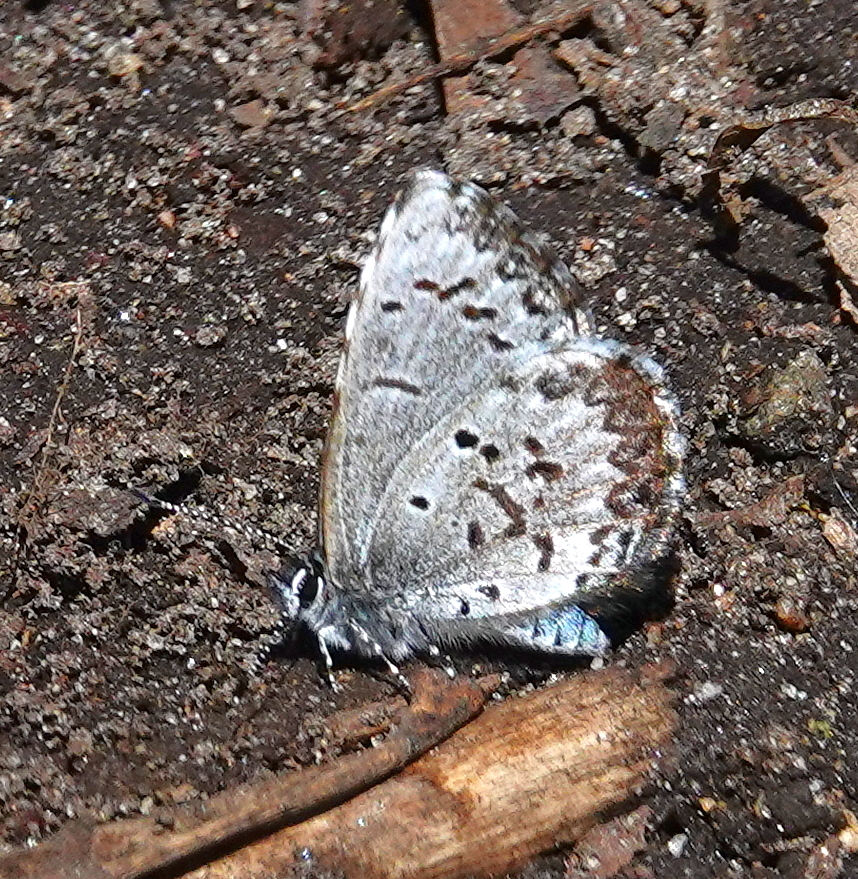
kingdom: Animalia
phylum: Arthropoda
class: Insecta
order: Lepidoptera
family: Lycaenidae
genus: Celastrina
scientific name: Celastrina lucia
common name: Lucia azure
